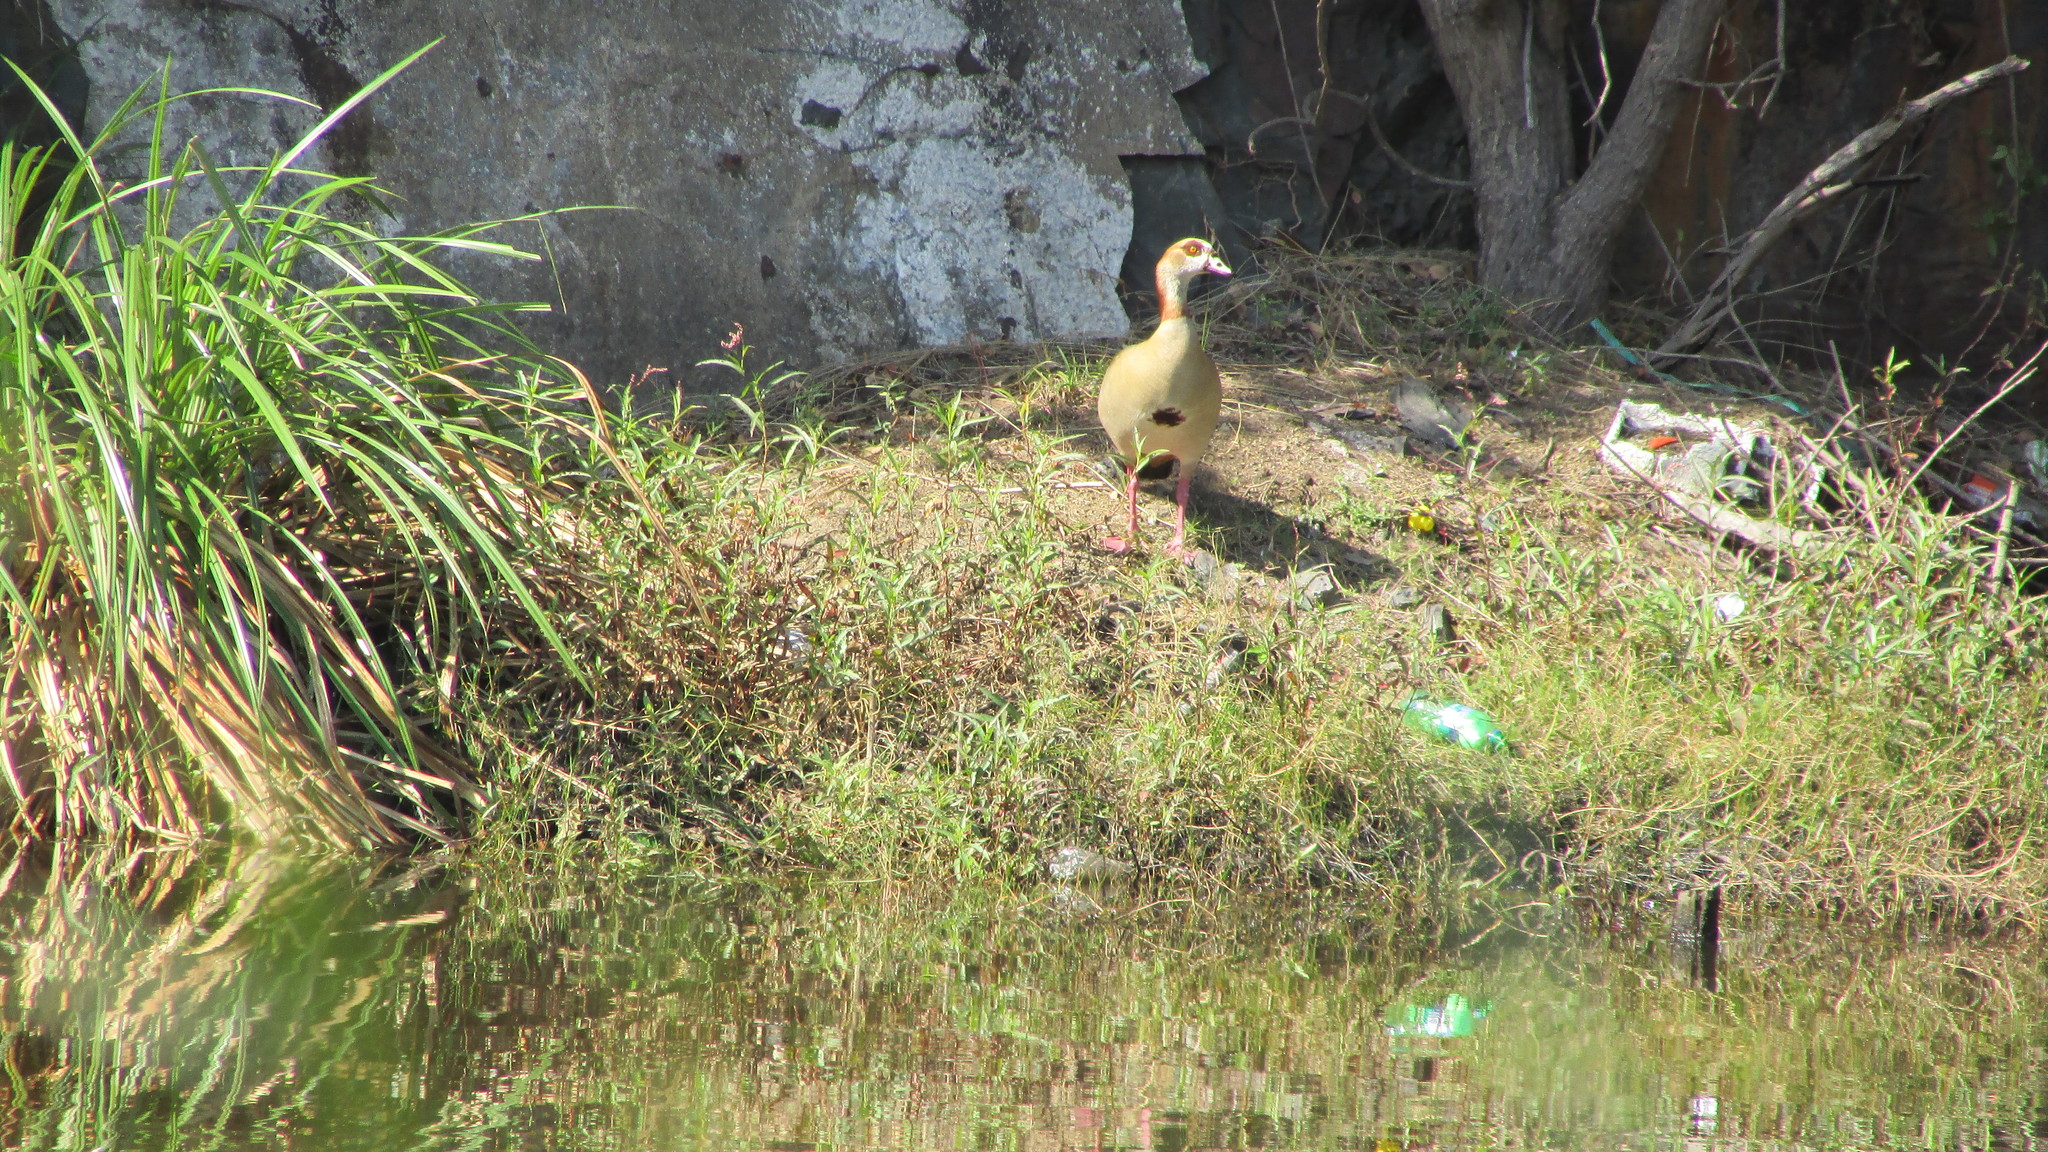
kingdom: Animalia
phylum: Chordata
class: Aves
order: Anseriformes
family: Anatidae
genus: Alopochen
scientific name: Alopochen aegyptiaca
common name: Egyptian goose
